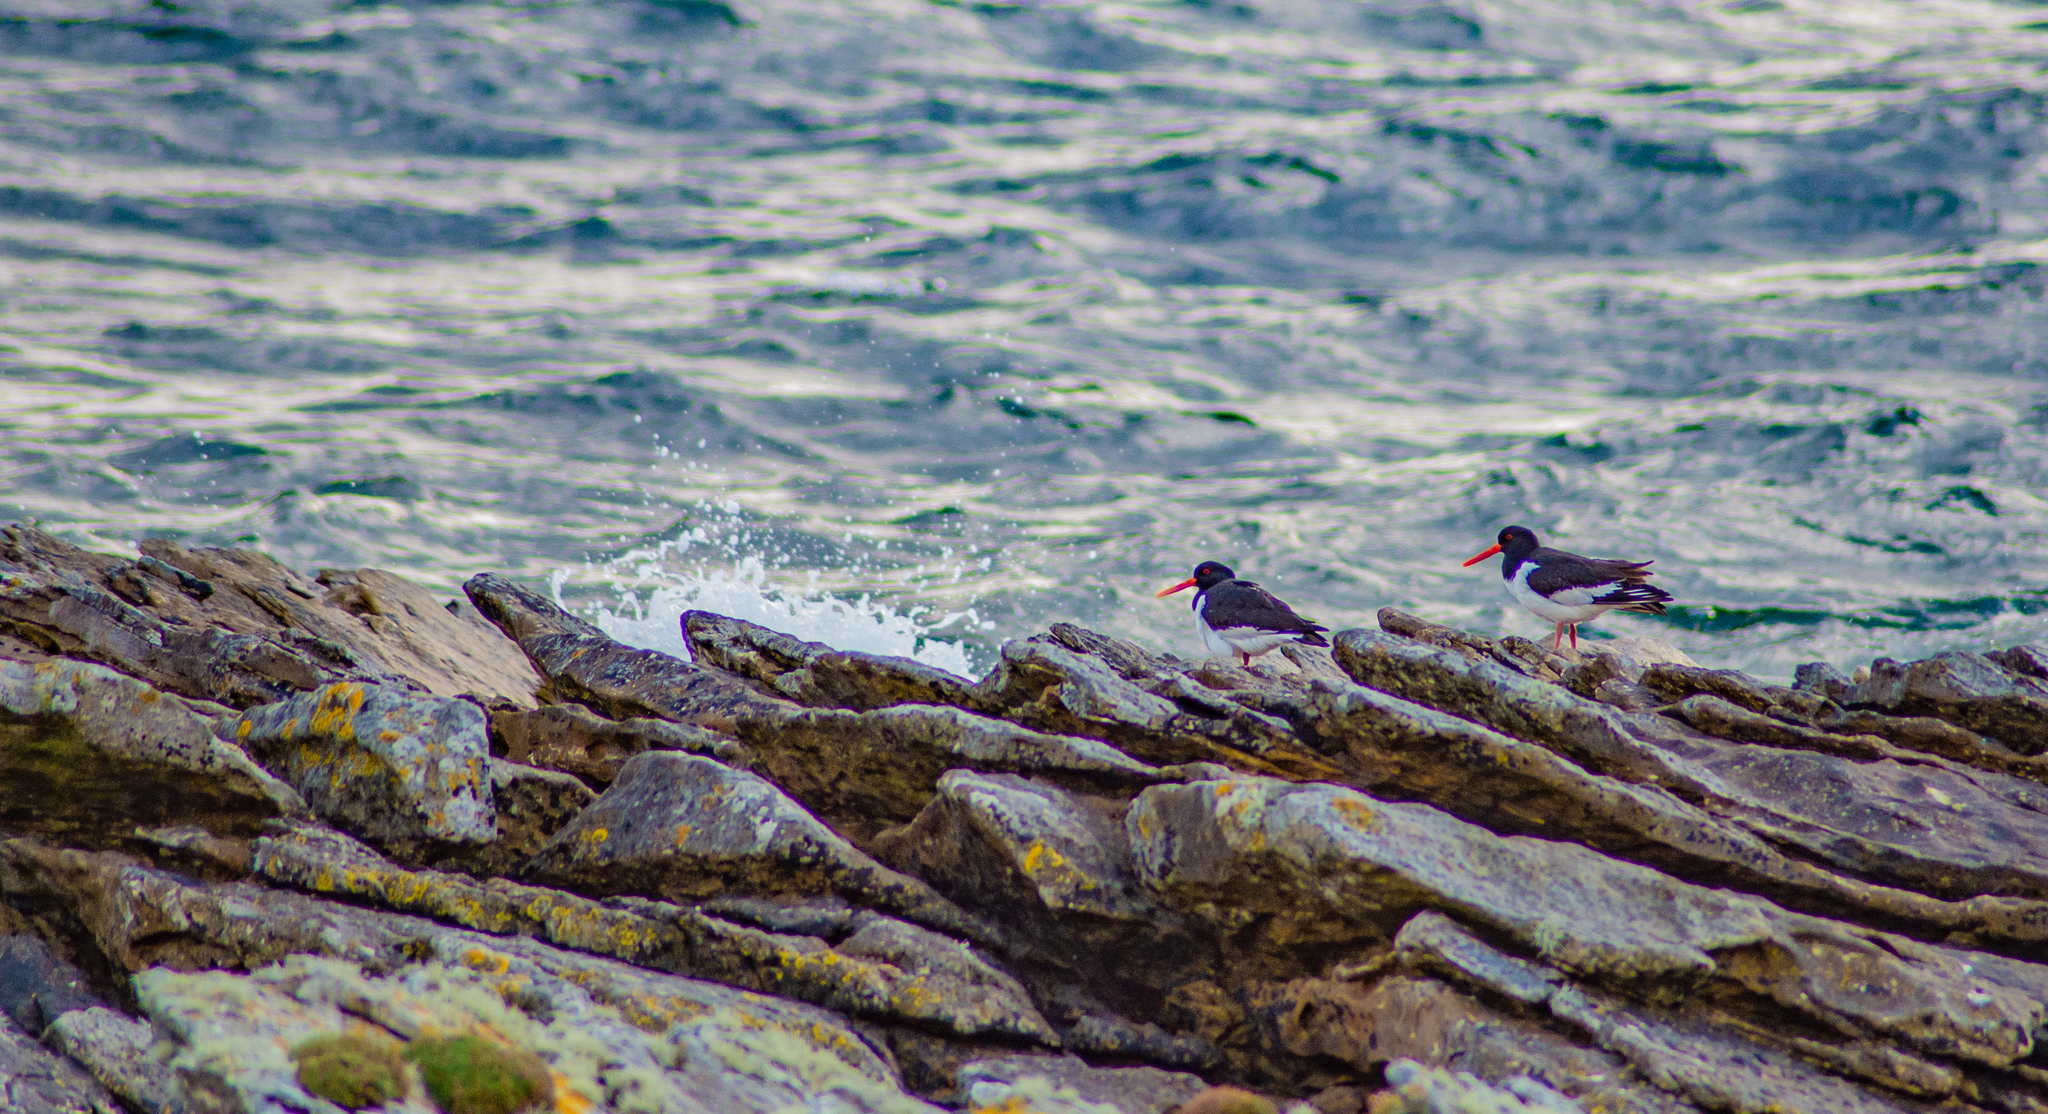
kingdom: Animalia
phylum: Chordata
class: Aves
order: Charadriiformes
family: Haematopodidae
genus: Haematopus
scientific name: Haematopus ostralegus
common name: Eurasian oystercatcher
